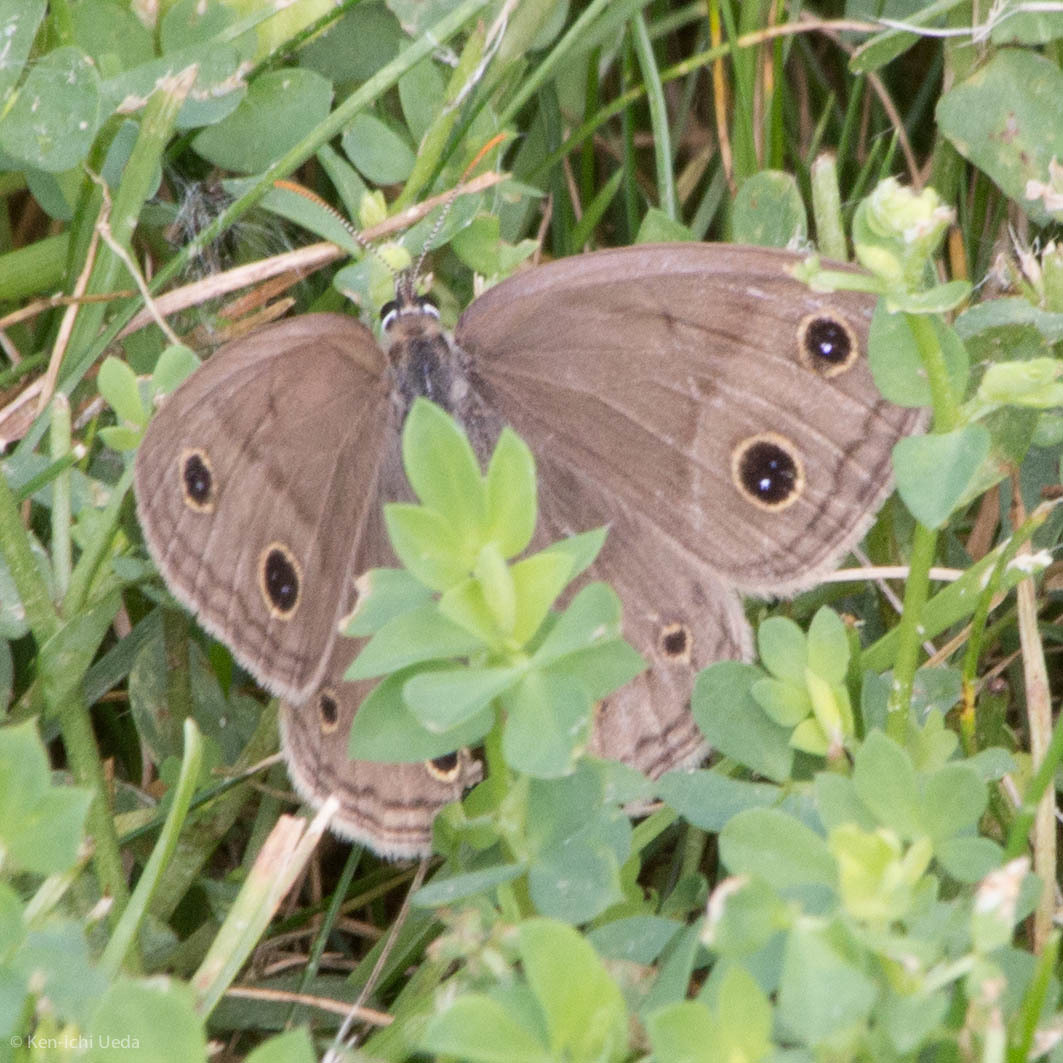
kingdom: Animalia
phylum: Arthropoda
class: Insecta
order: Lepidoptera
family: Nymphalidae
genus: Euptychia
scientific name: Euptychia cymela
